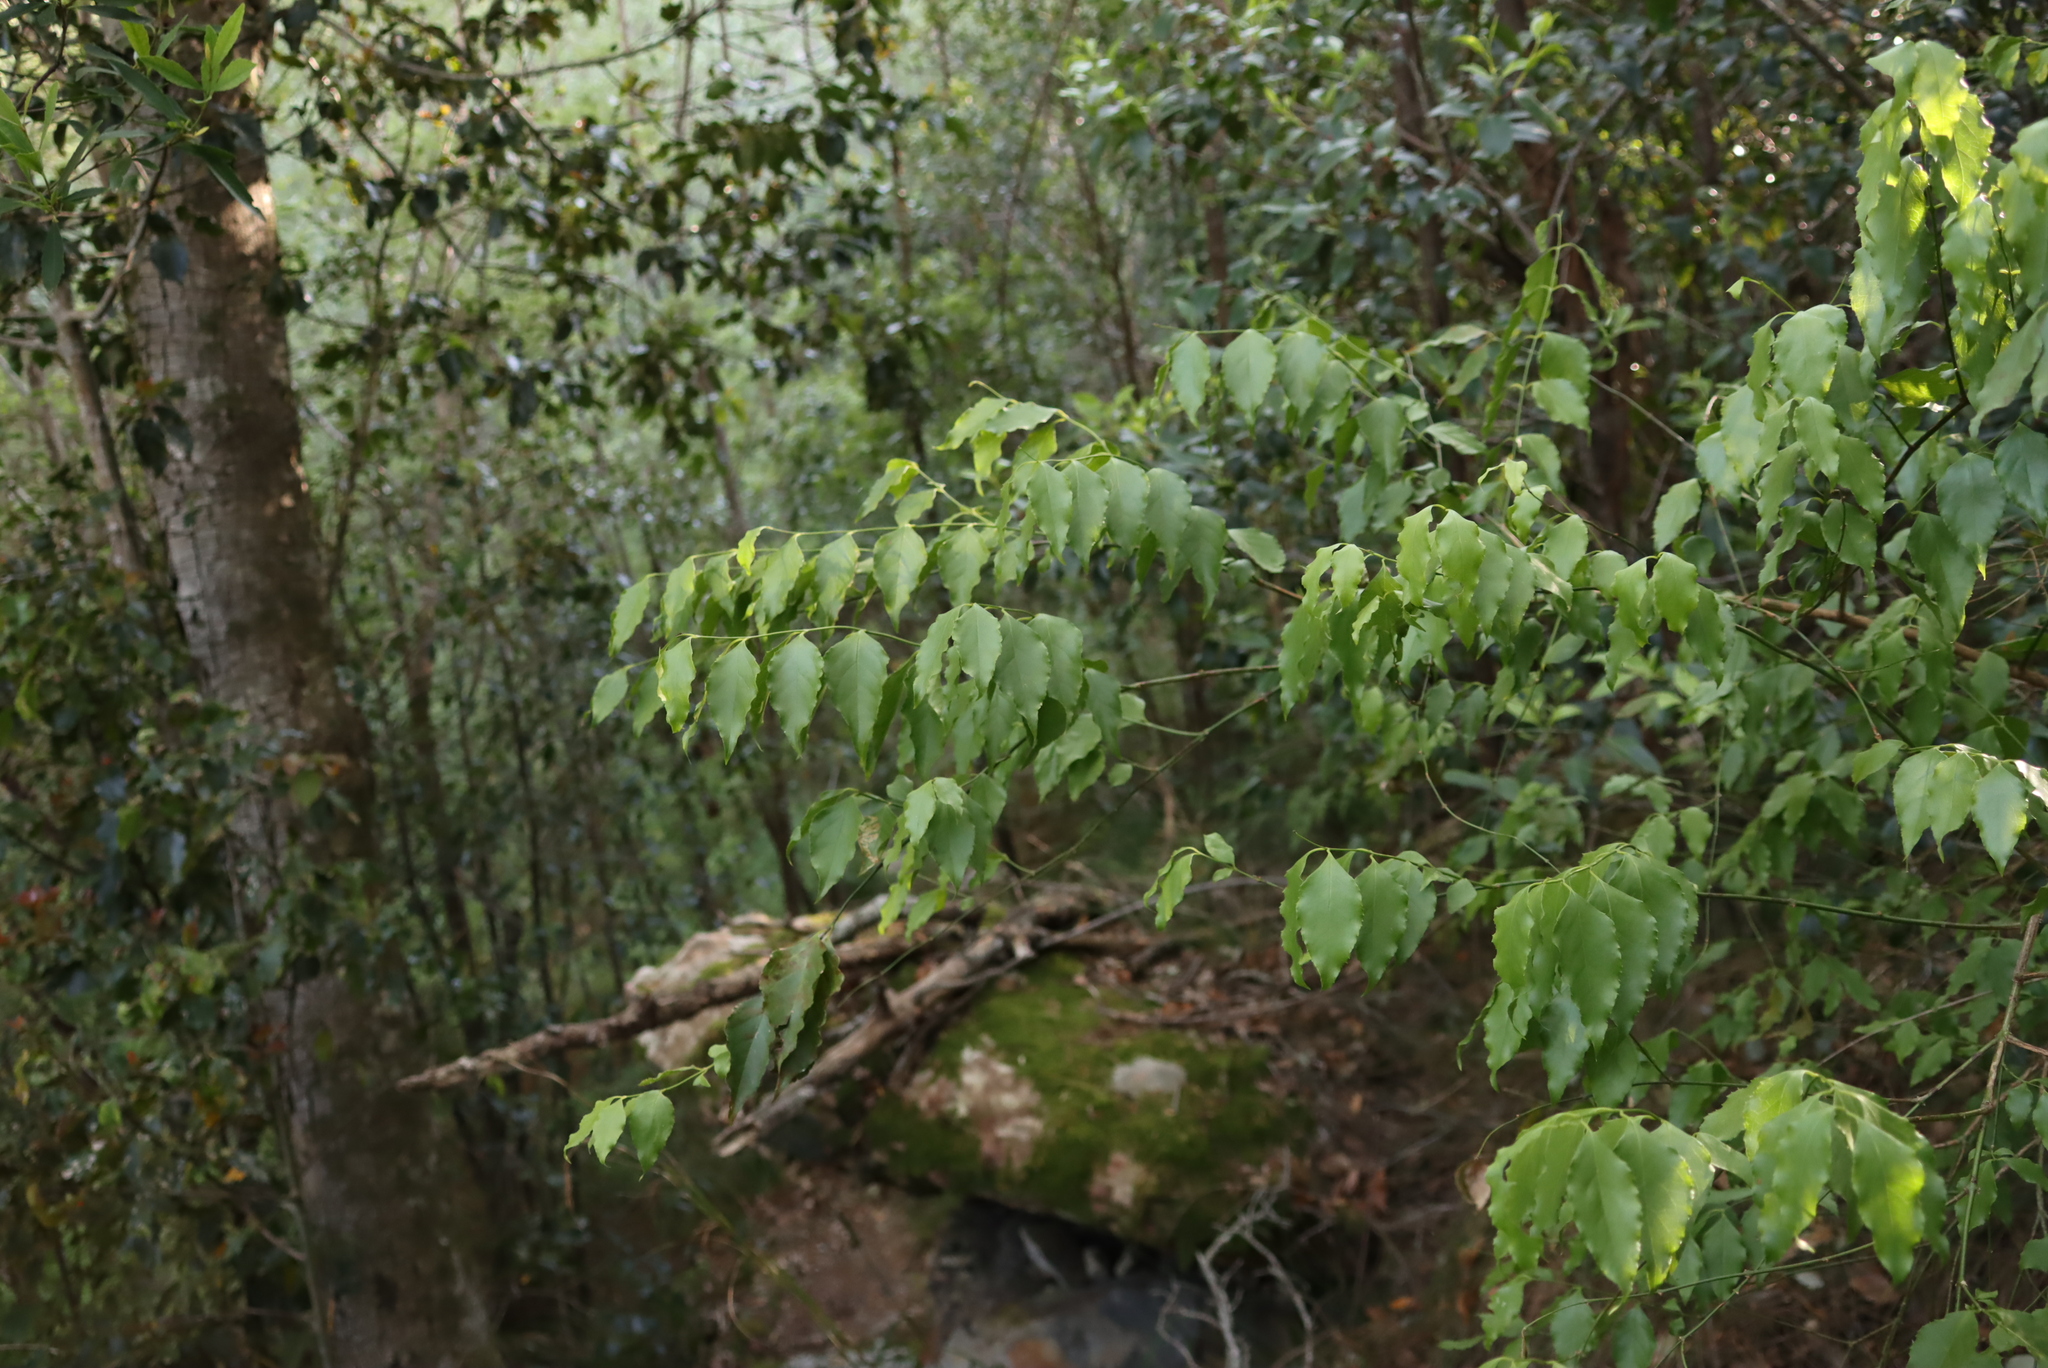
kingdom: Plantae
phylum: Tracheophyta
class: Magnoliopsida
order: Lamiales
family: Stilbaceae
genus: Halleria
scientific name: Halleria lucida
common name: Tree fuschia
